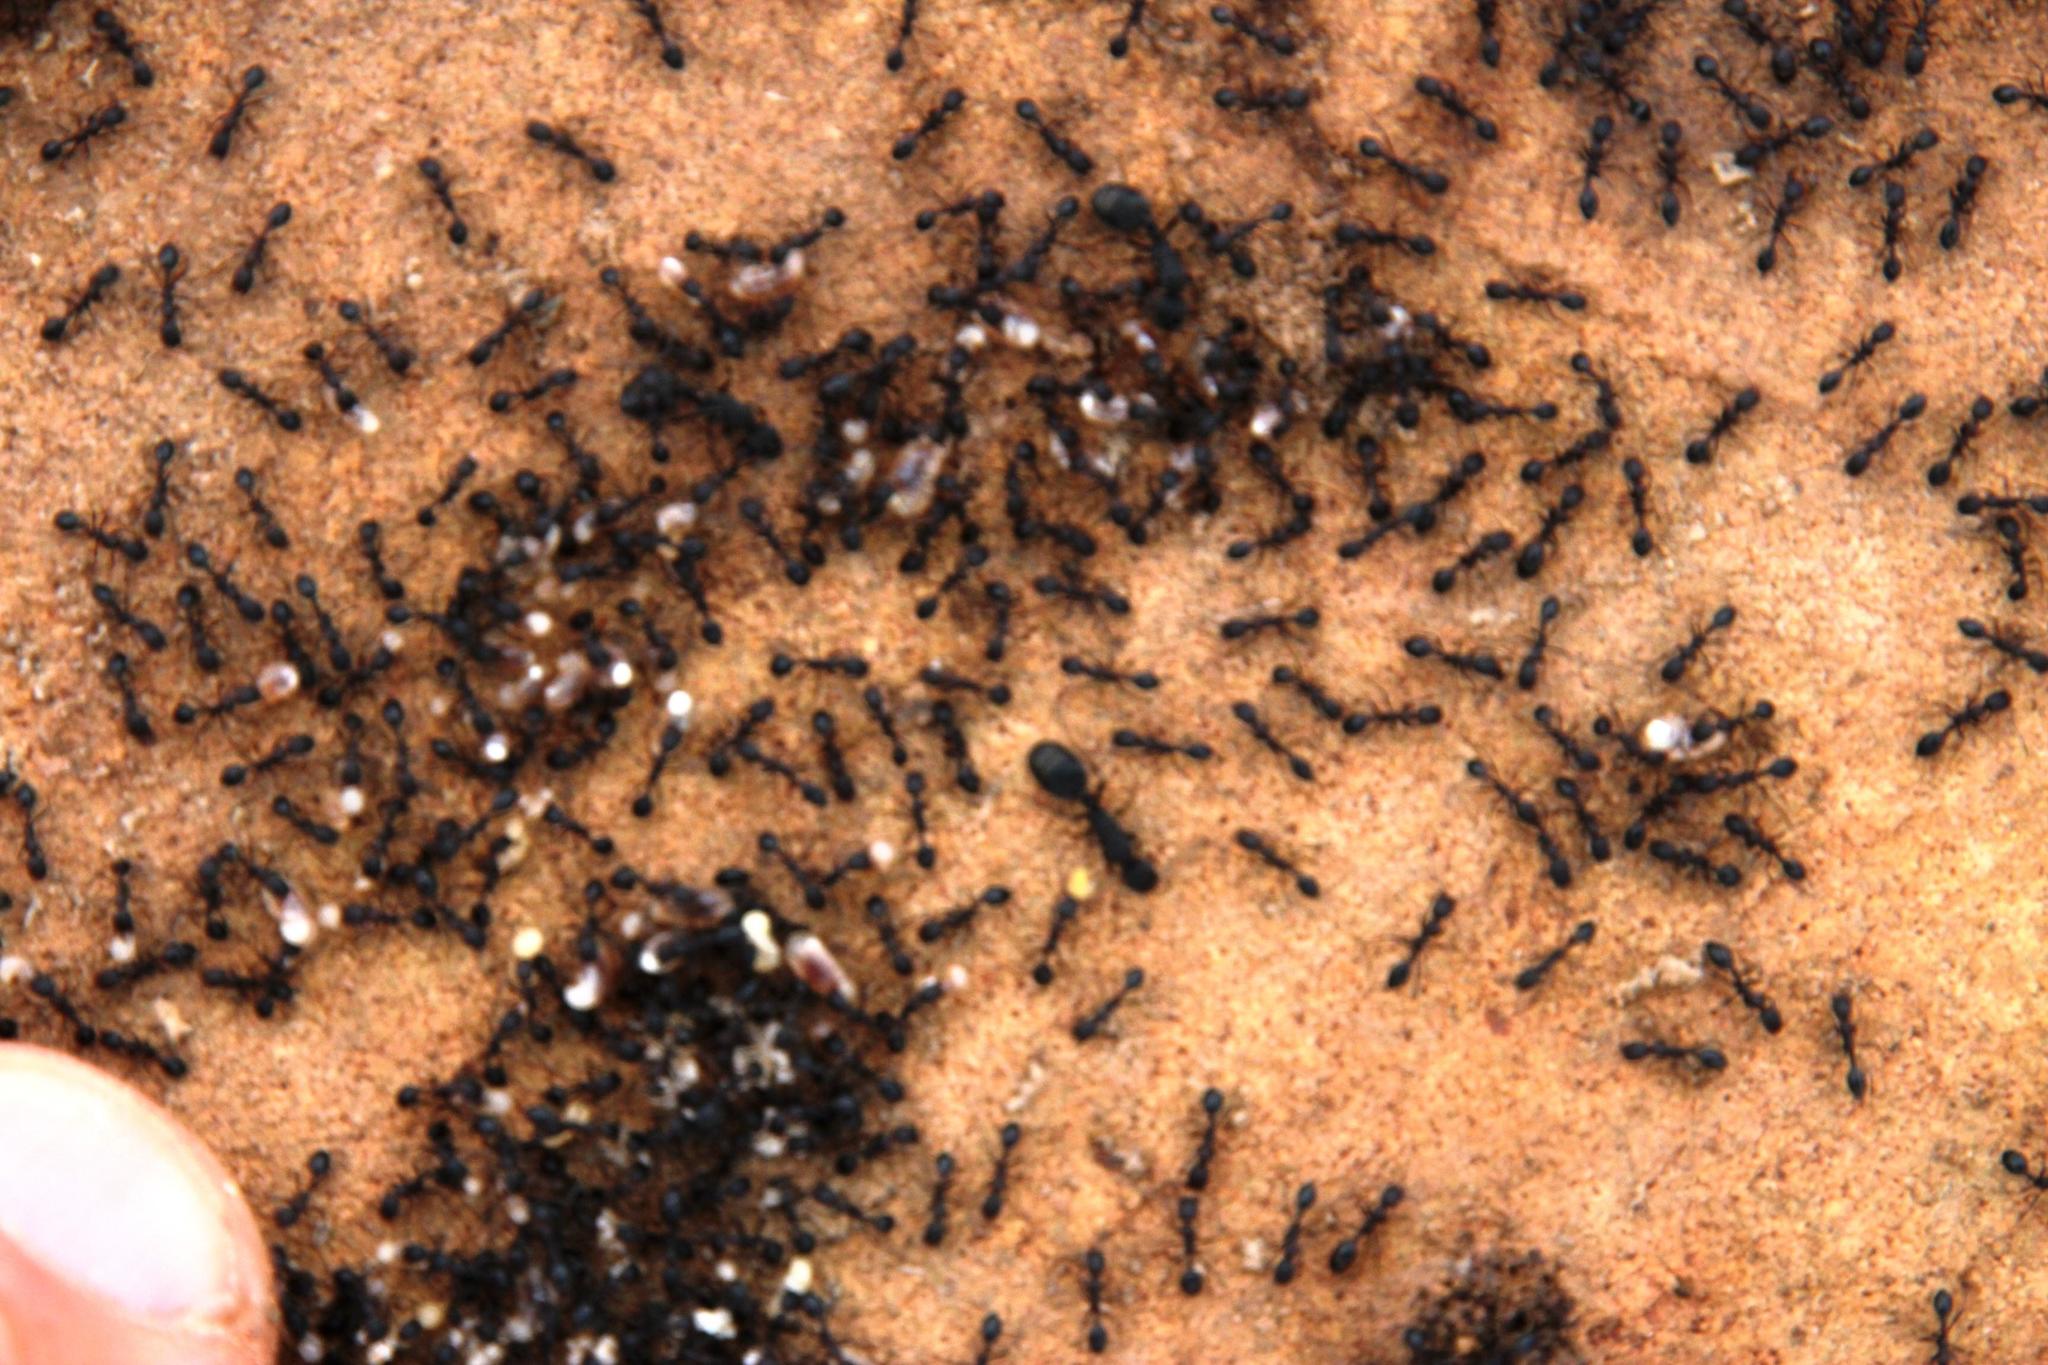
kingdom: Animalia
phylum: Arthropoda
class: Insecta
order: Hymenoptera
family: Formicidae
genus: Monomorium
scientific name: Monomorium fridae
